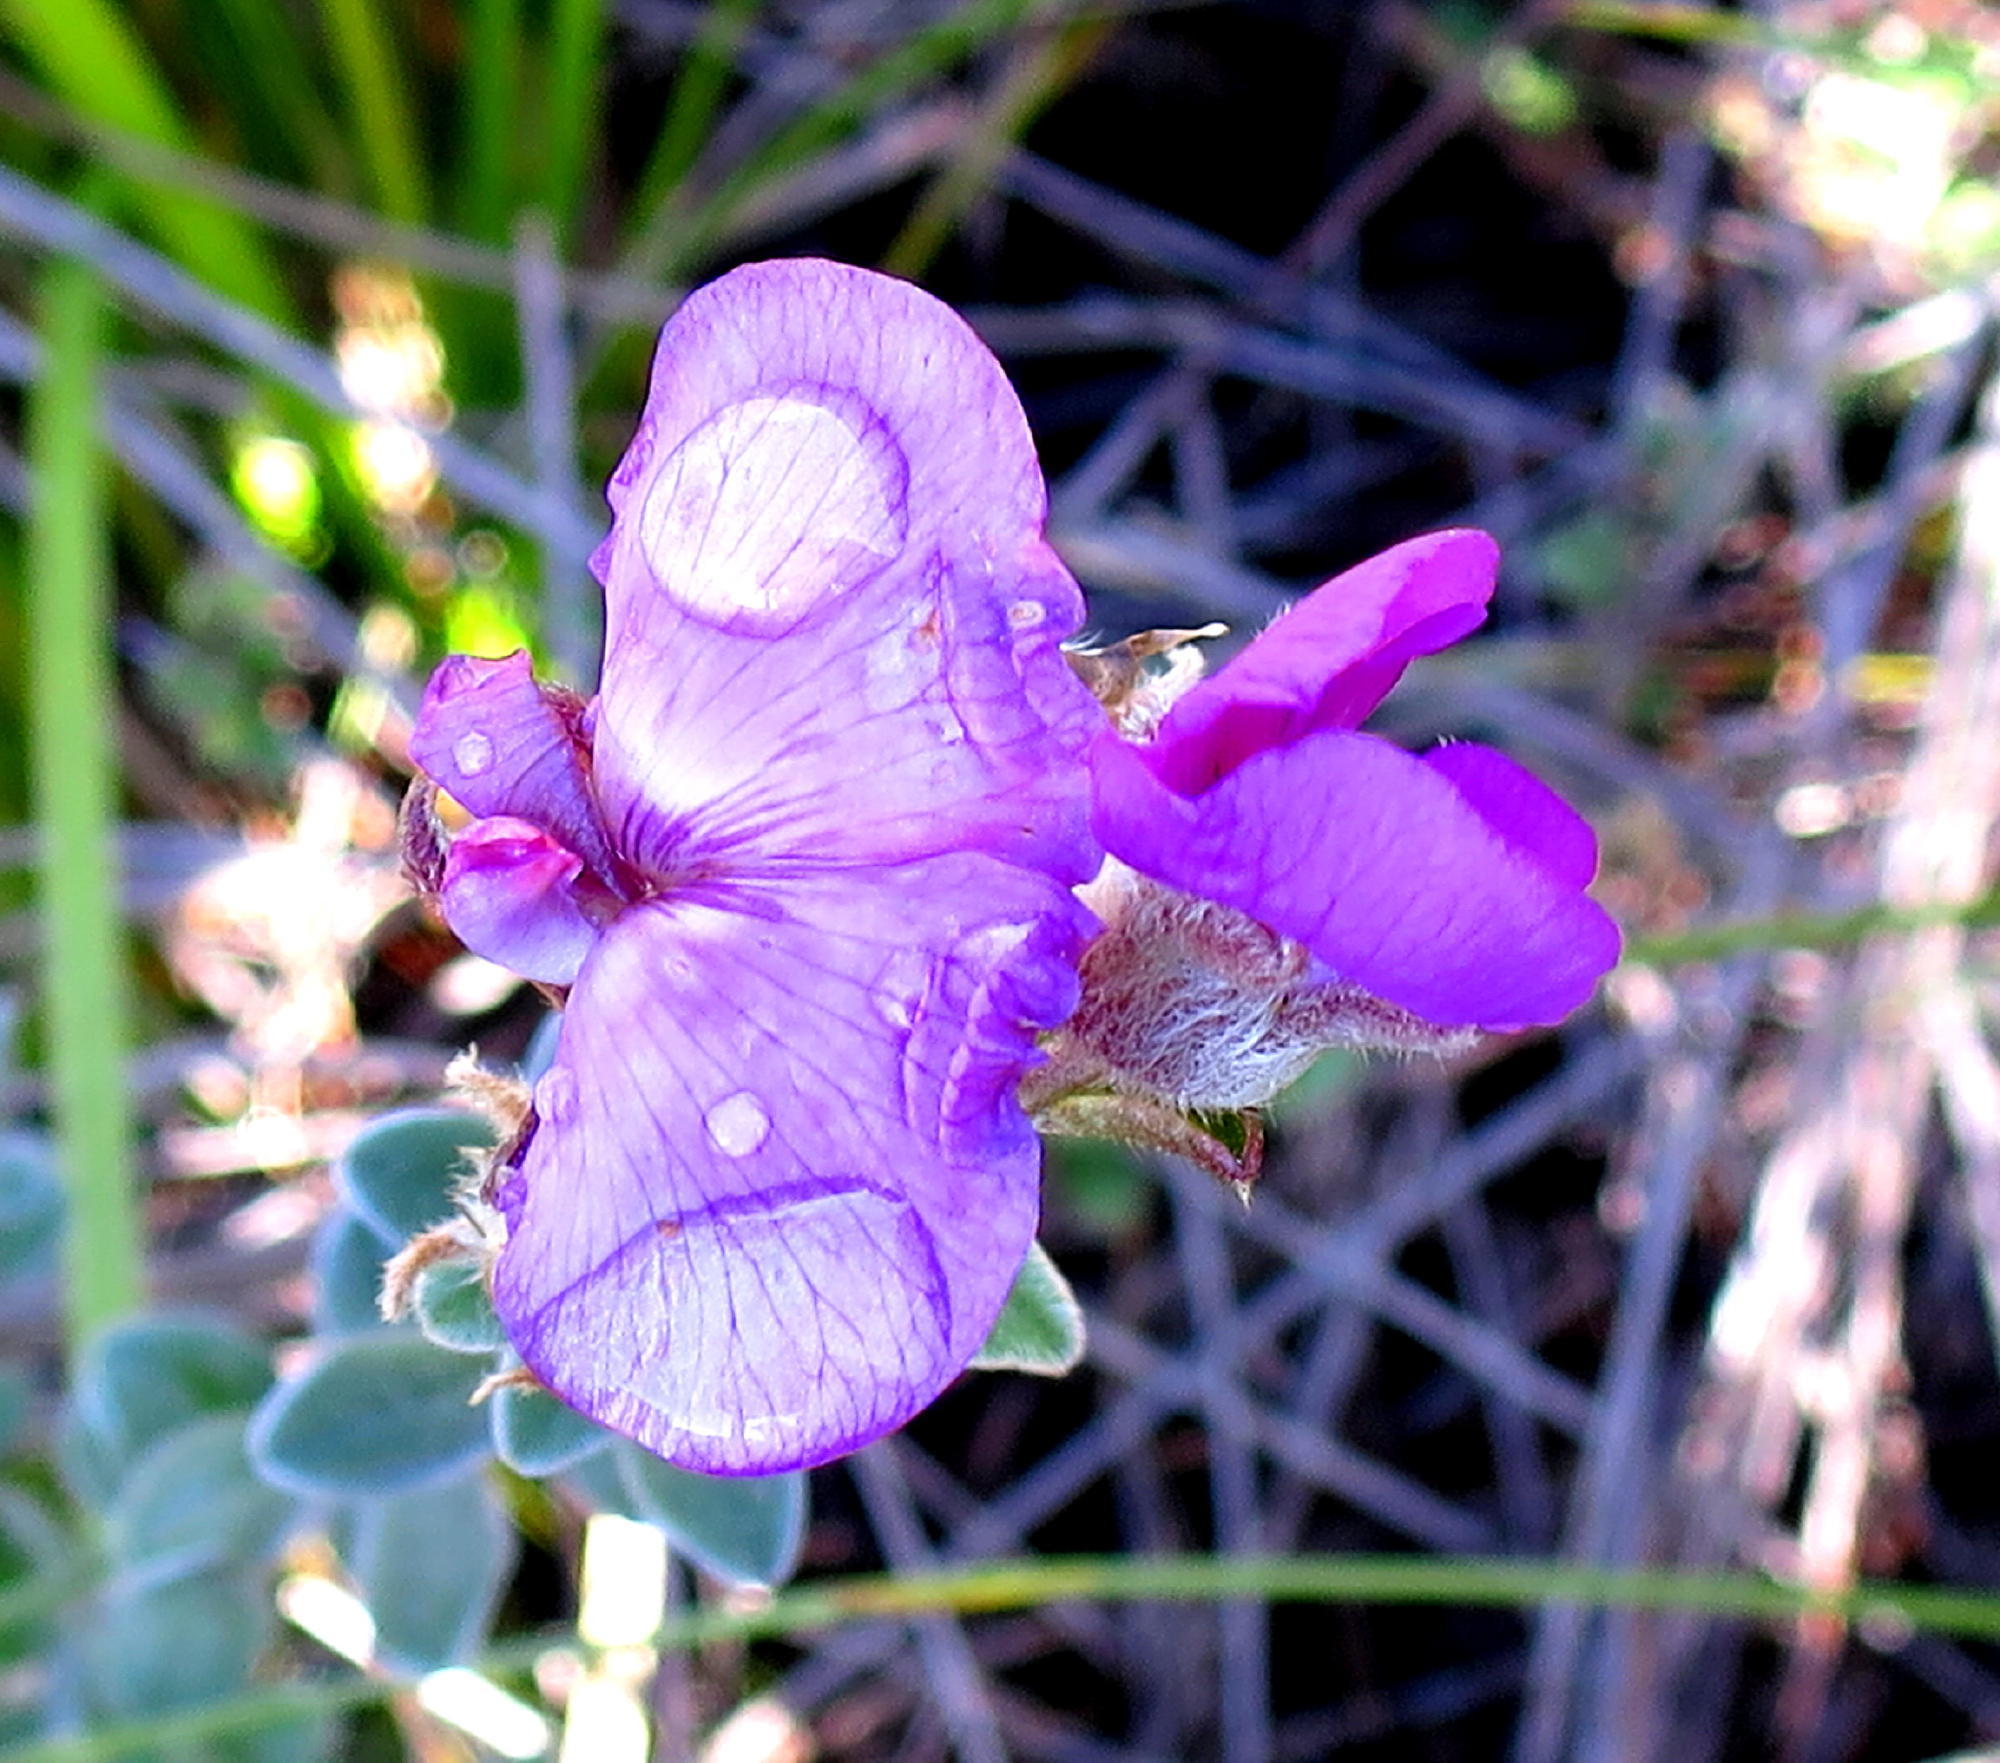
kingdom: Plantae
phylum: Tracheophyta
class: Magnoliopsida
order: Fabales
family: Fabaceae
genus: Podalyria
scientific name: Podalyria burchellii
